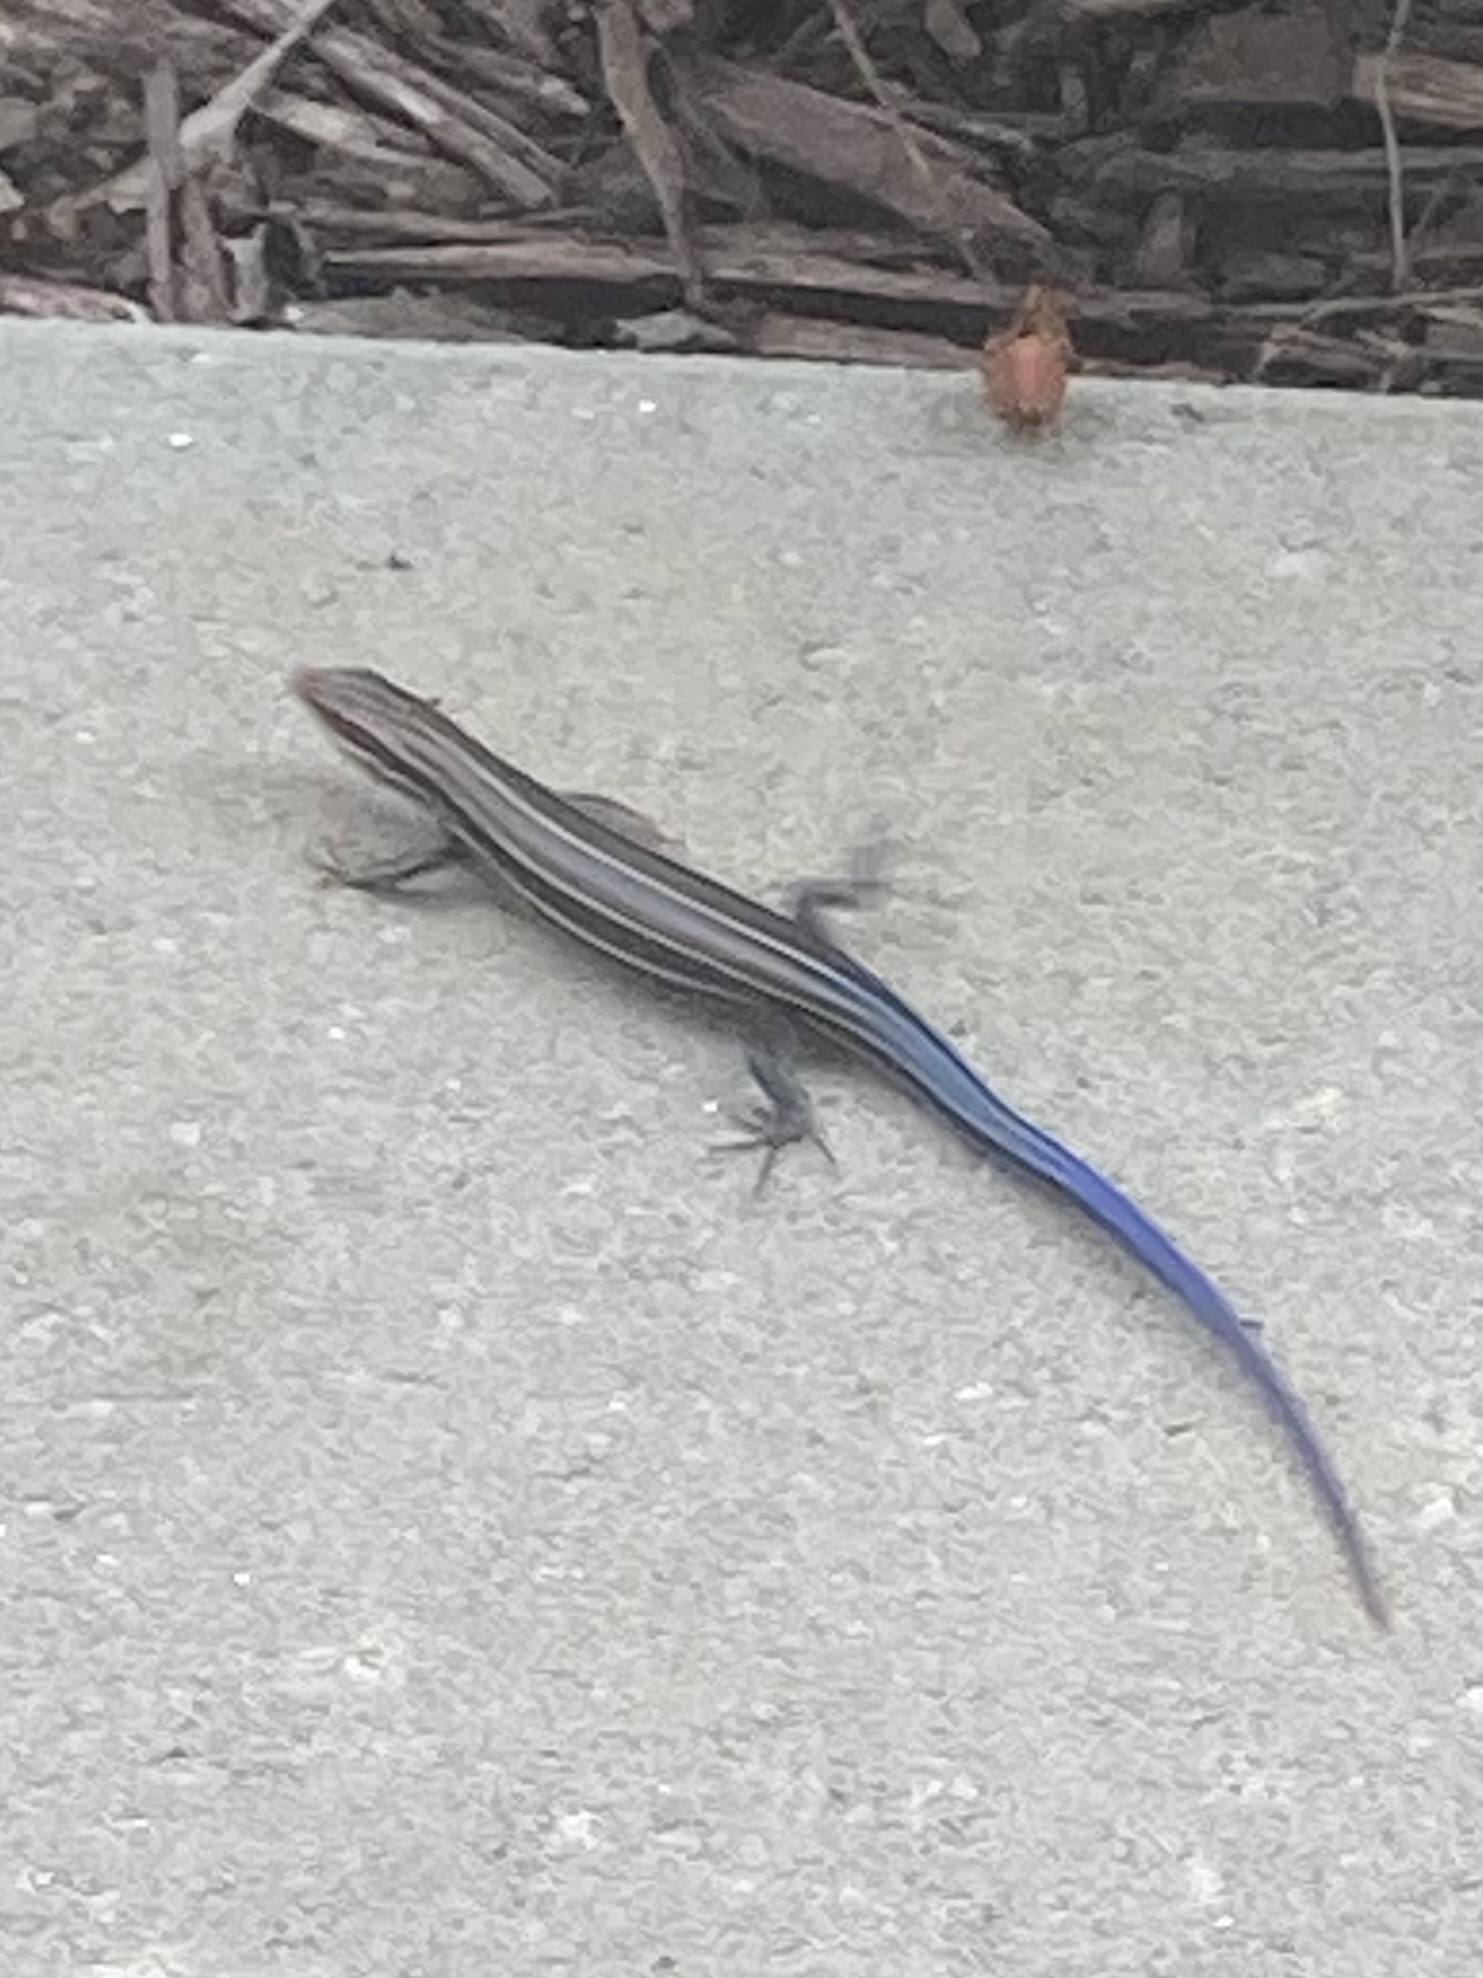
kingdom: Animalia
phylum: Chordata
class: Squamata
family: Scincidae
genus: Plestiodon
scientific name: Plestiodon inexpectatus
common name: Southeastern five-lined skink
